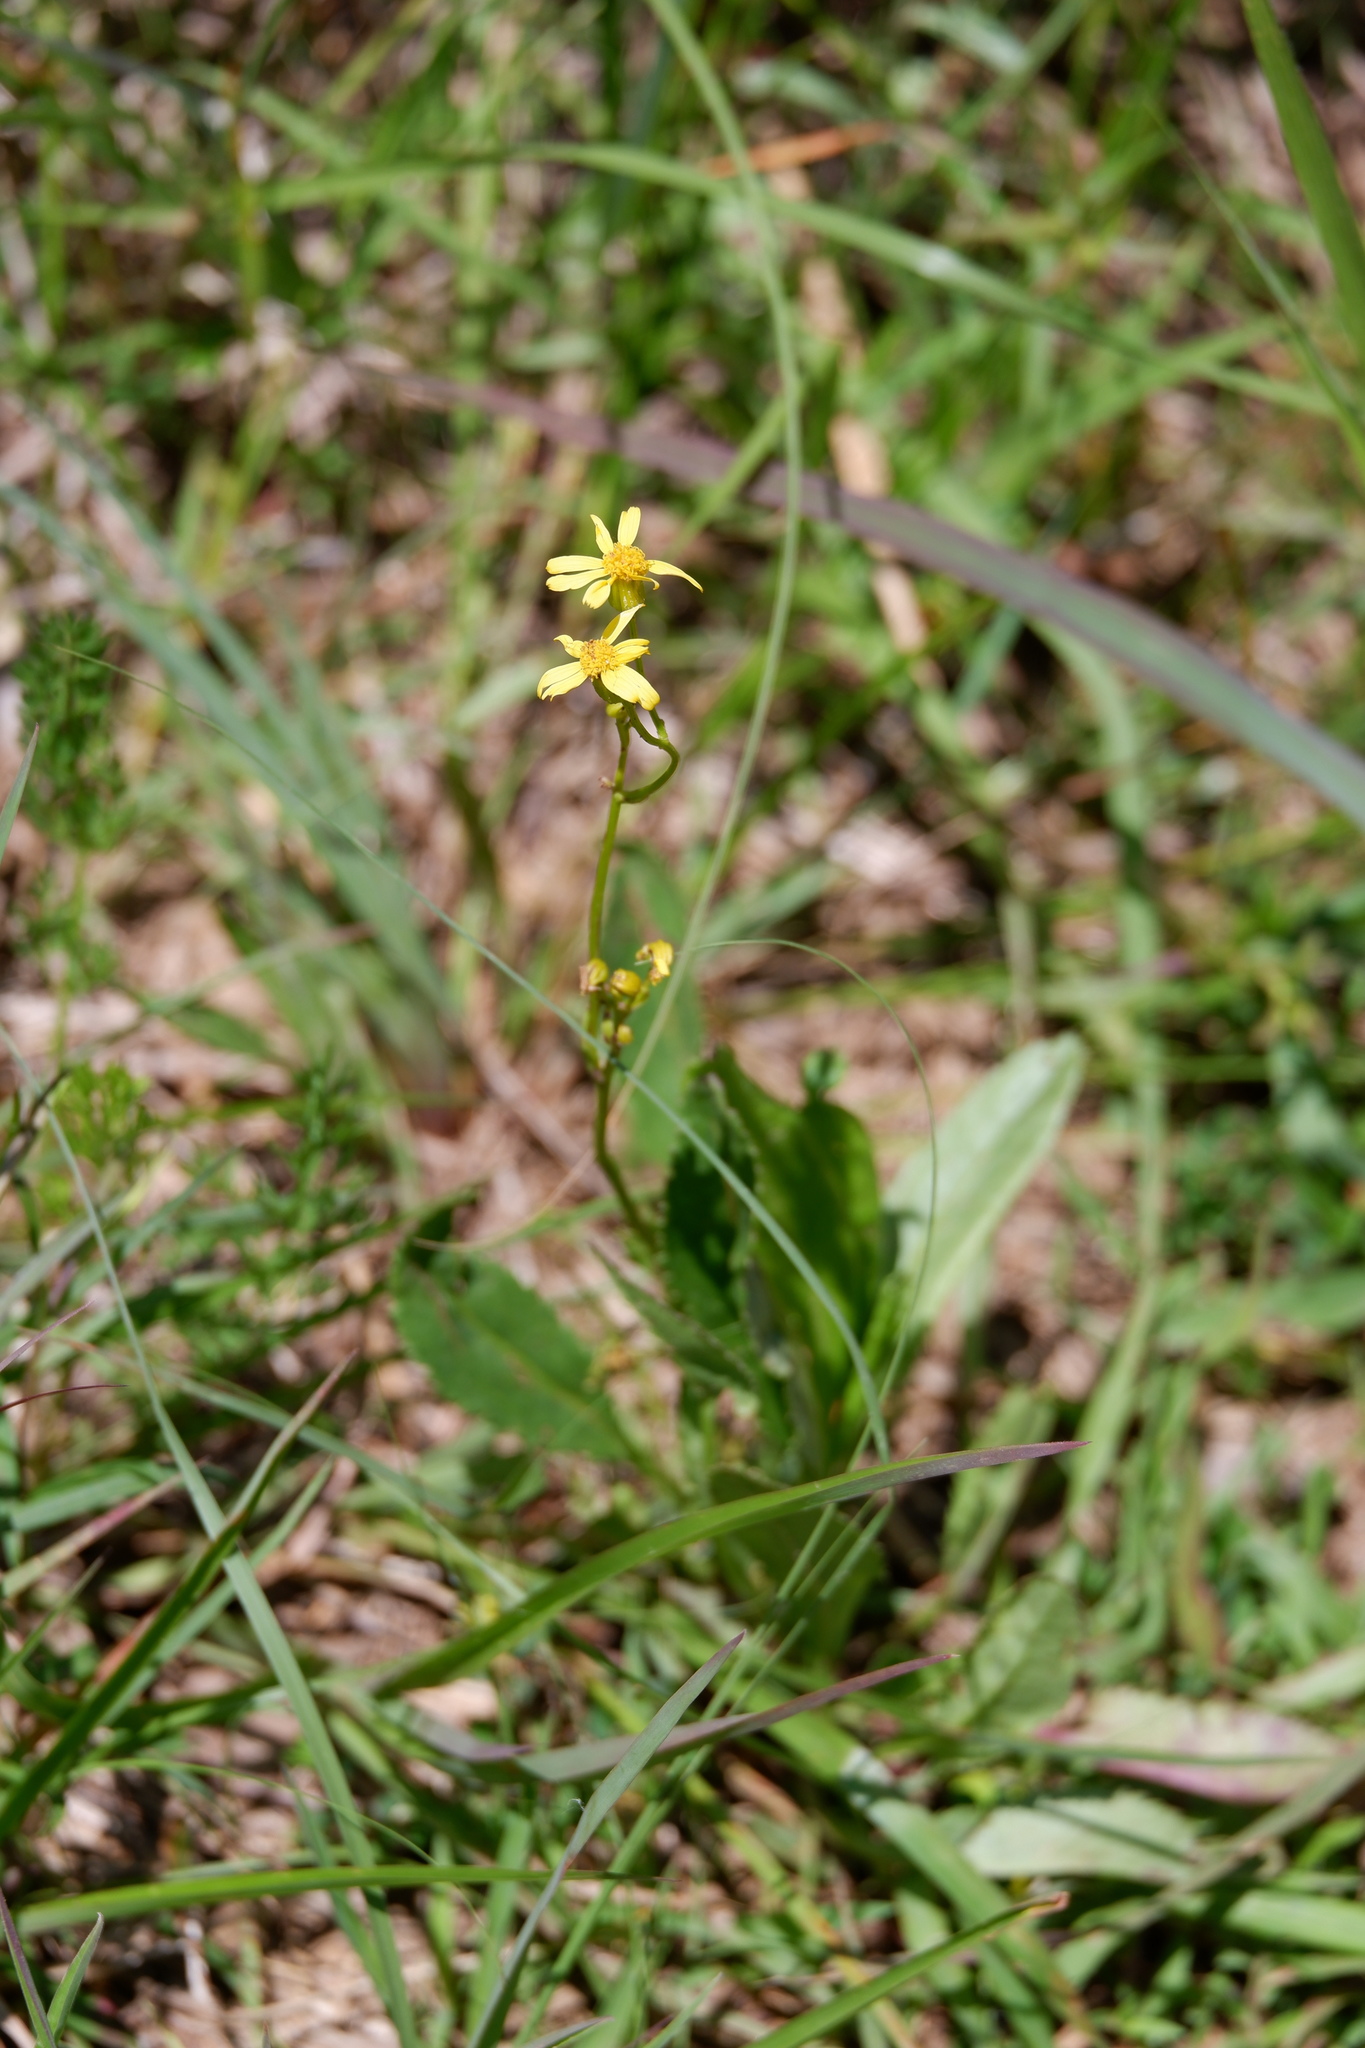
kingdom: Plantae
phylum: Tracheophyta
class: Magnoliopsida
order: Asterales
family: Asteraceae
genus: Packera
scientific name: Packera anonyma
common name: Small ragwort
